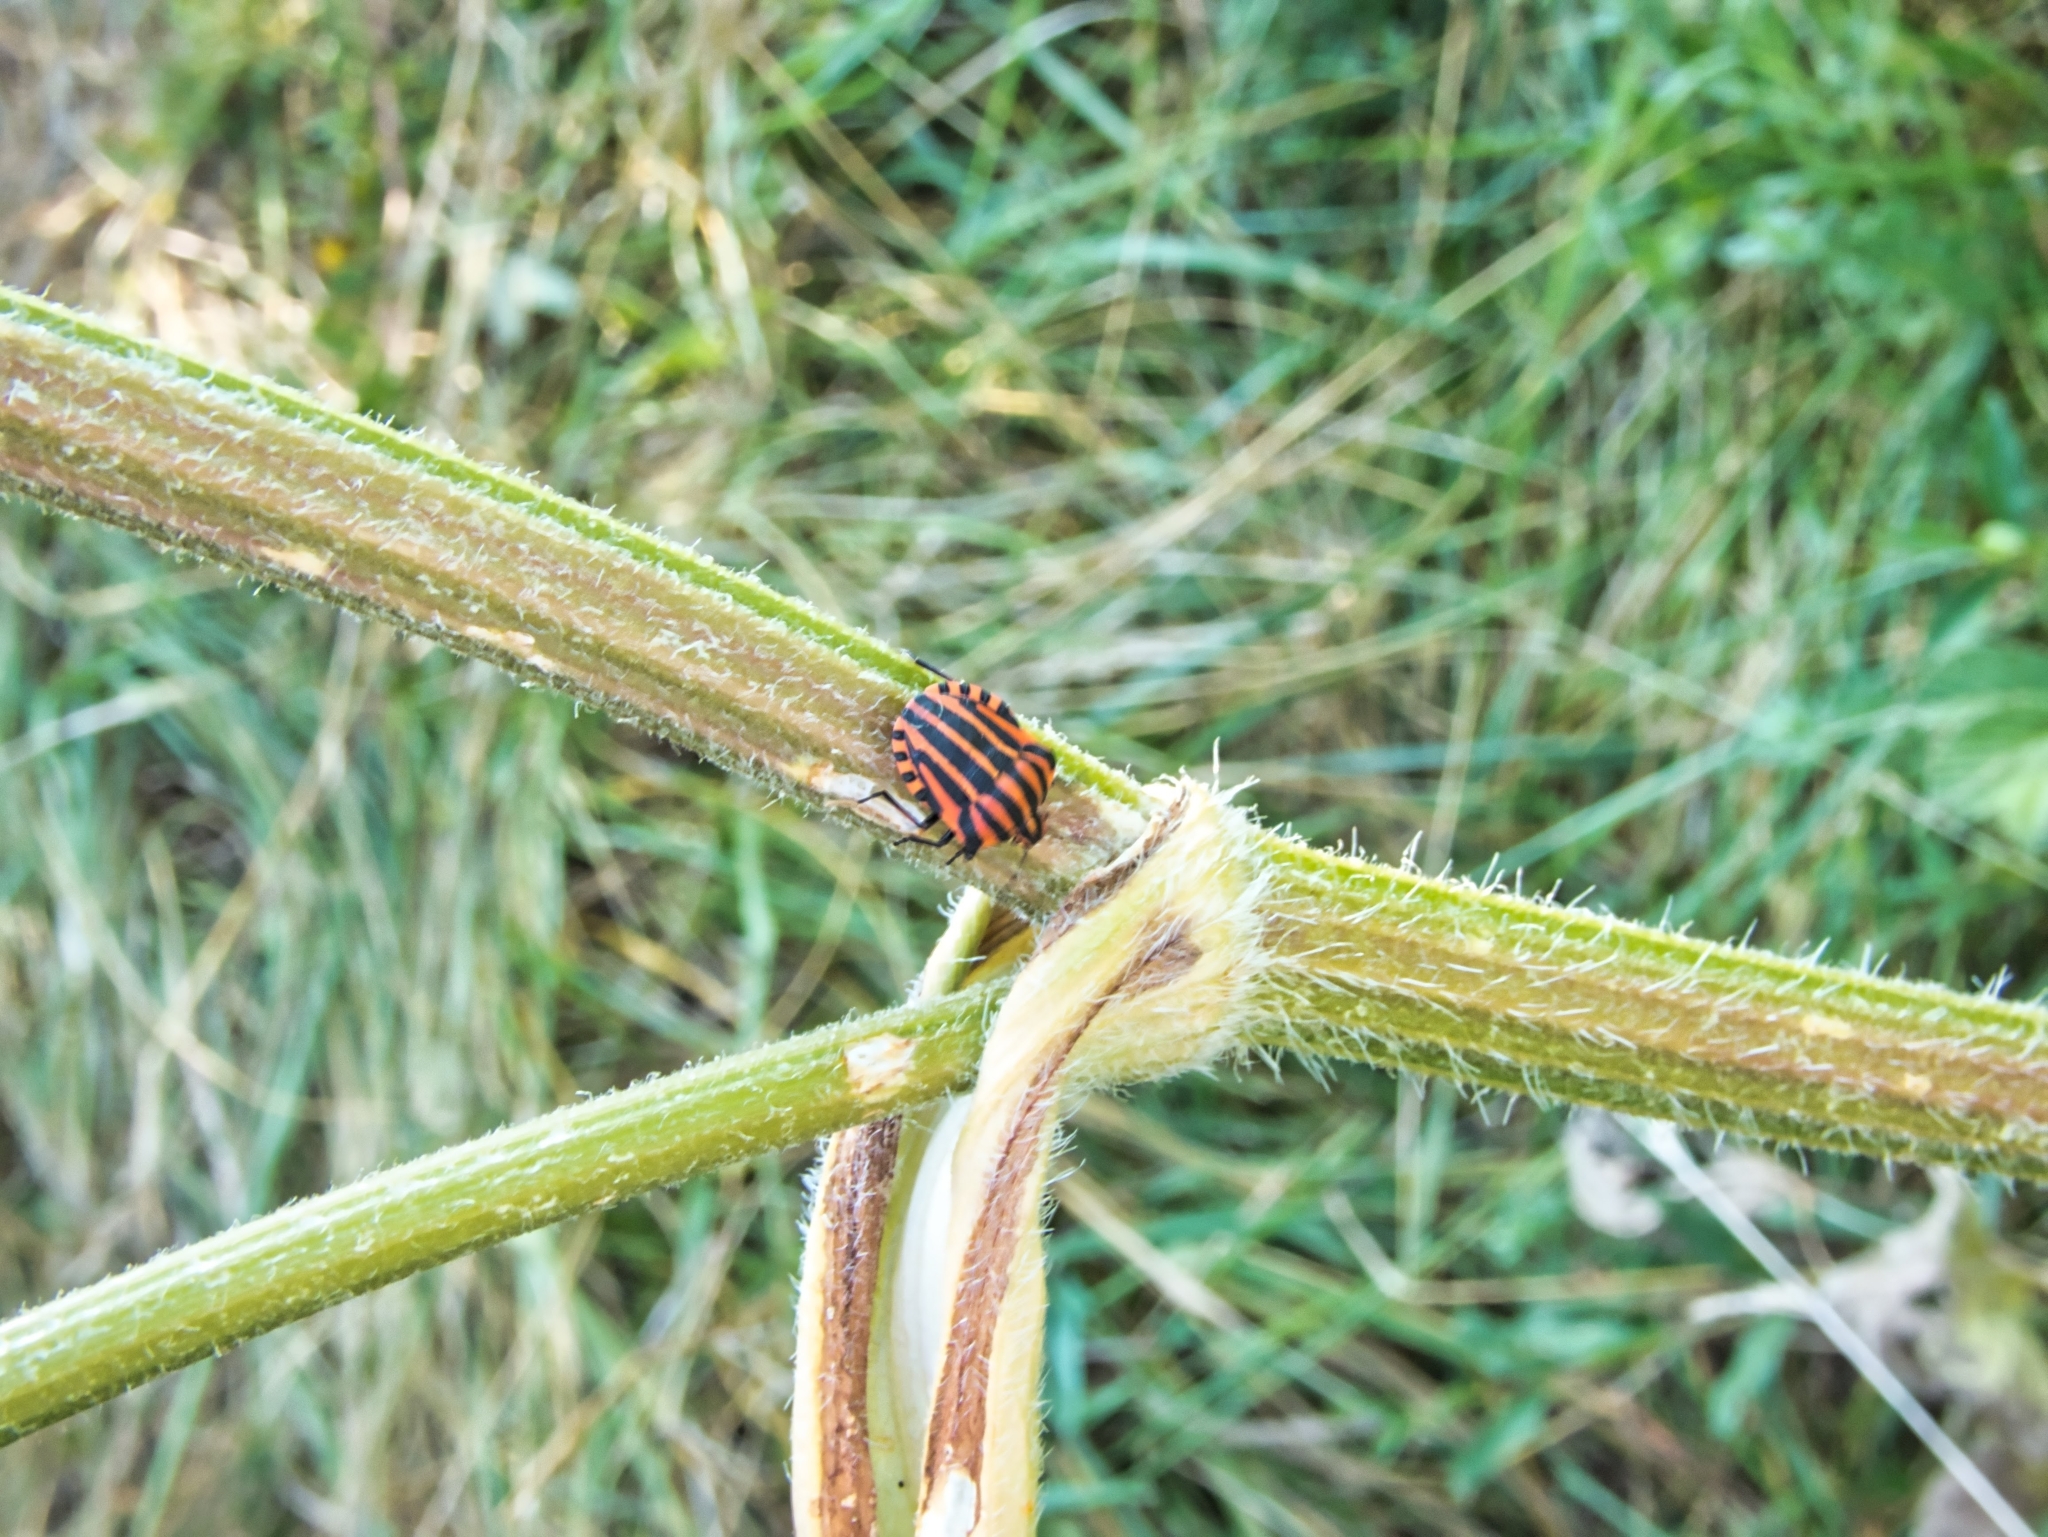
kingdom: Animalia
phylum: Arthropoda
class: Insecta
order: Hemiptera
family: Pentatomidae
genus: Graphosoma
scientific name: Graphosoma italicum
